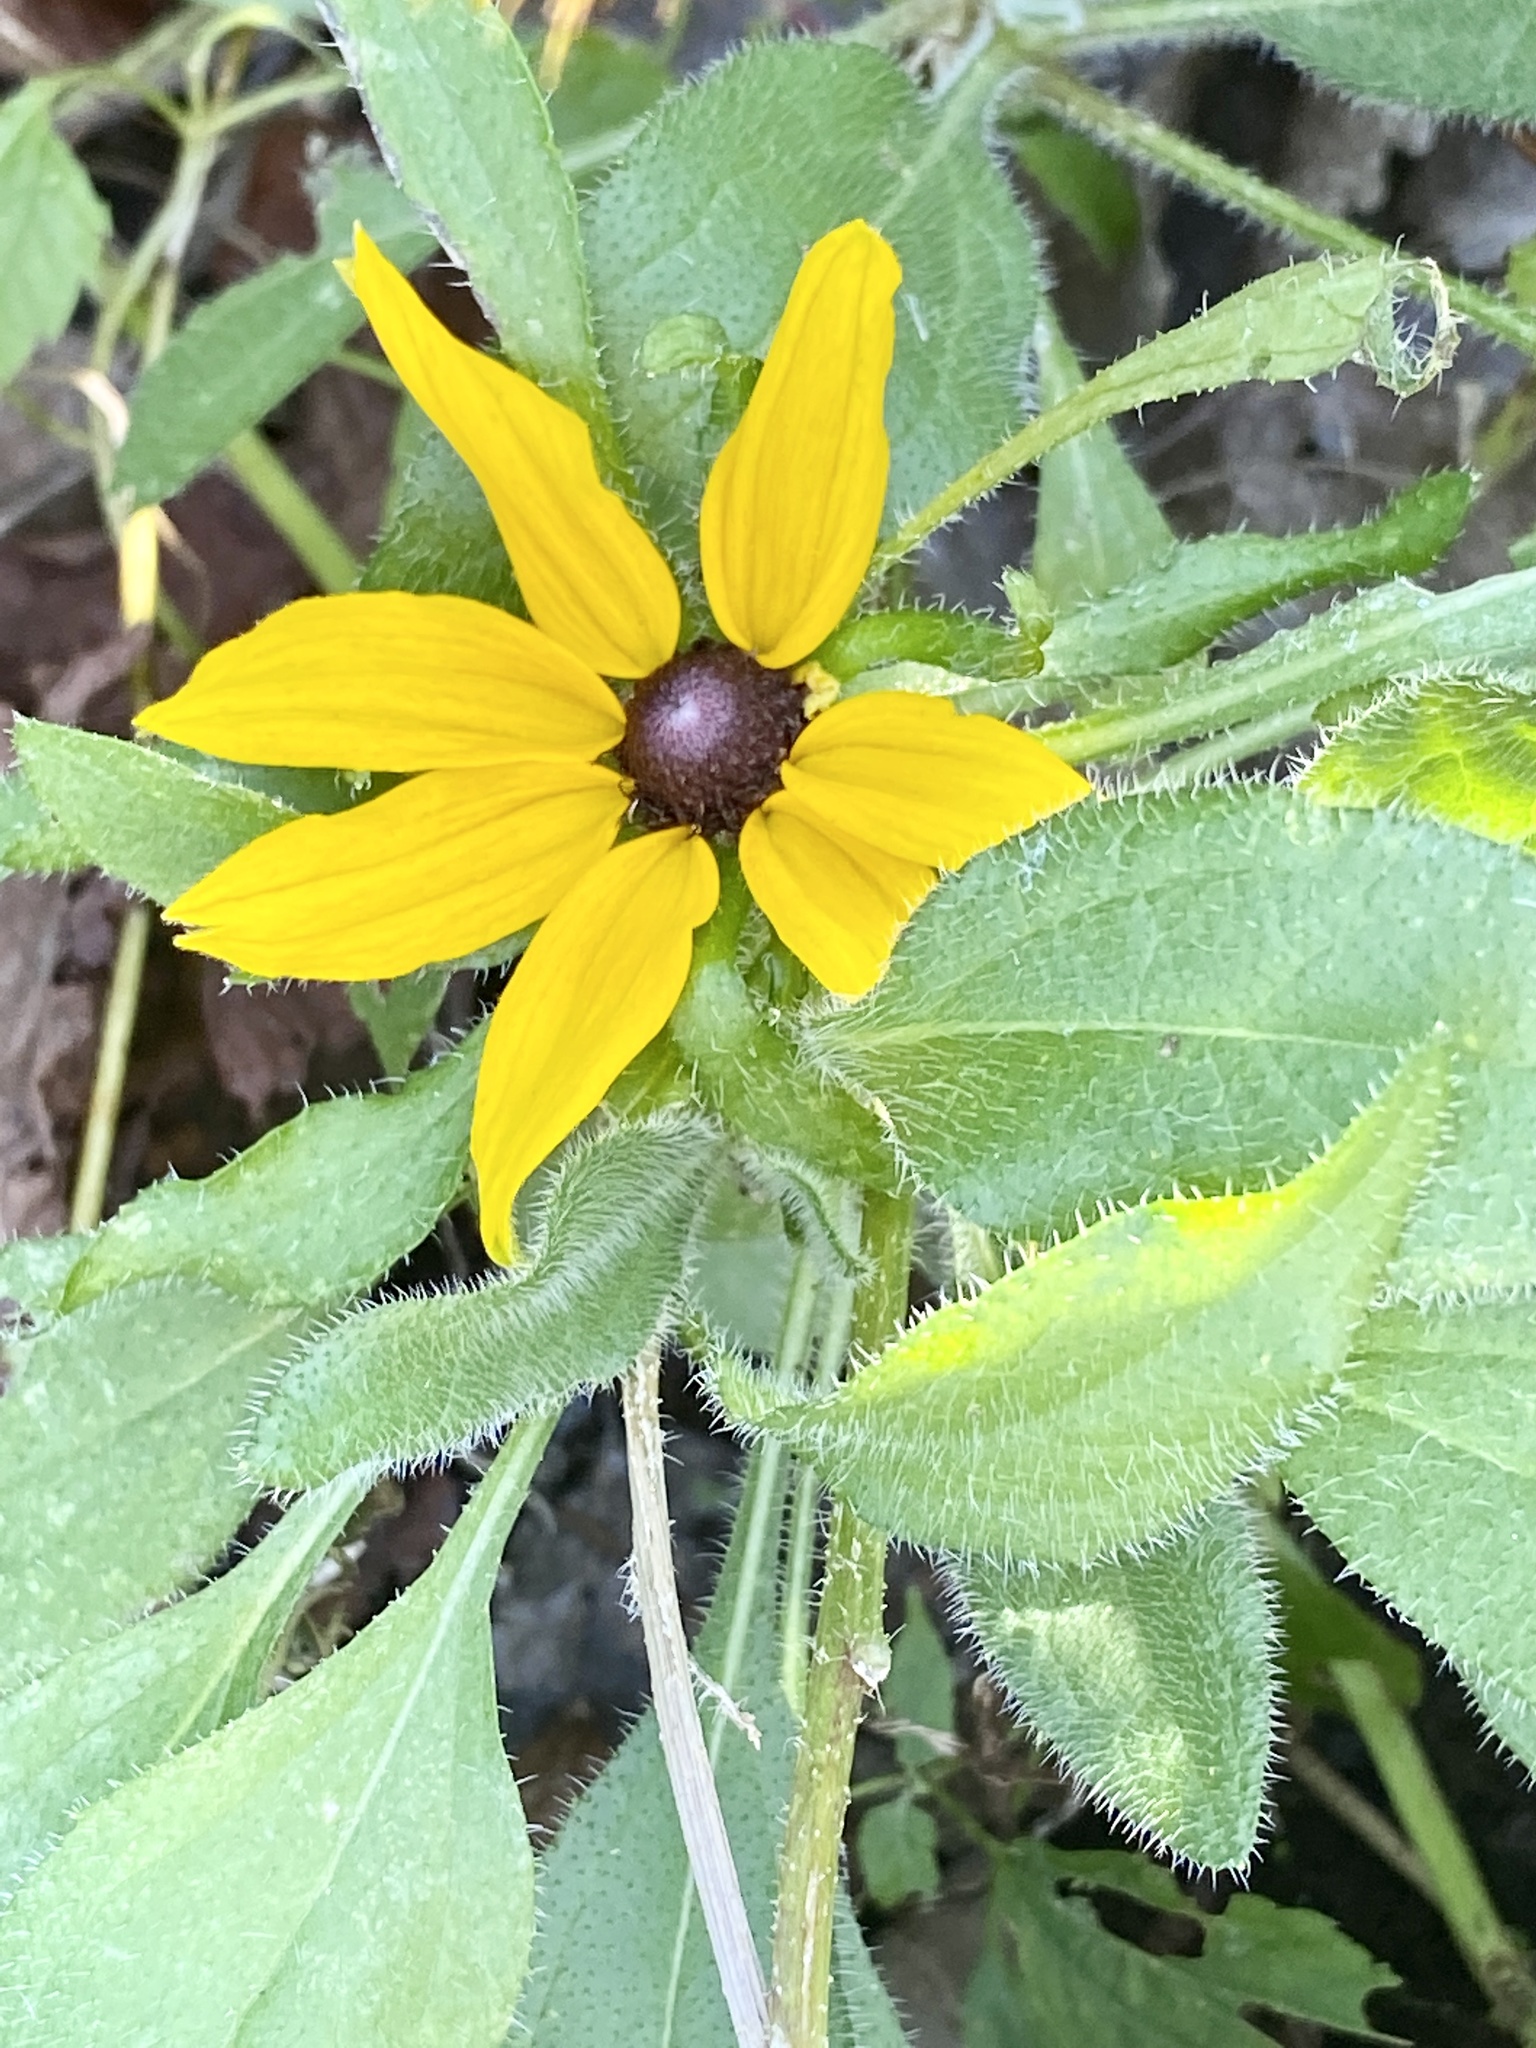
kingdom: Plantae
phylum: Tracheophyta
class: Magnoliopsida
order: Asterales
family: Asteraceae
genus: Rudbeckia
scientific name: Rudbeckia hirta
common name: Black-eyed-susan
